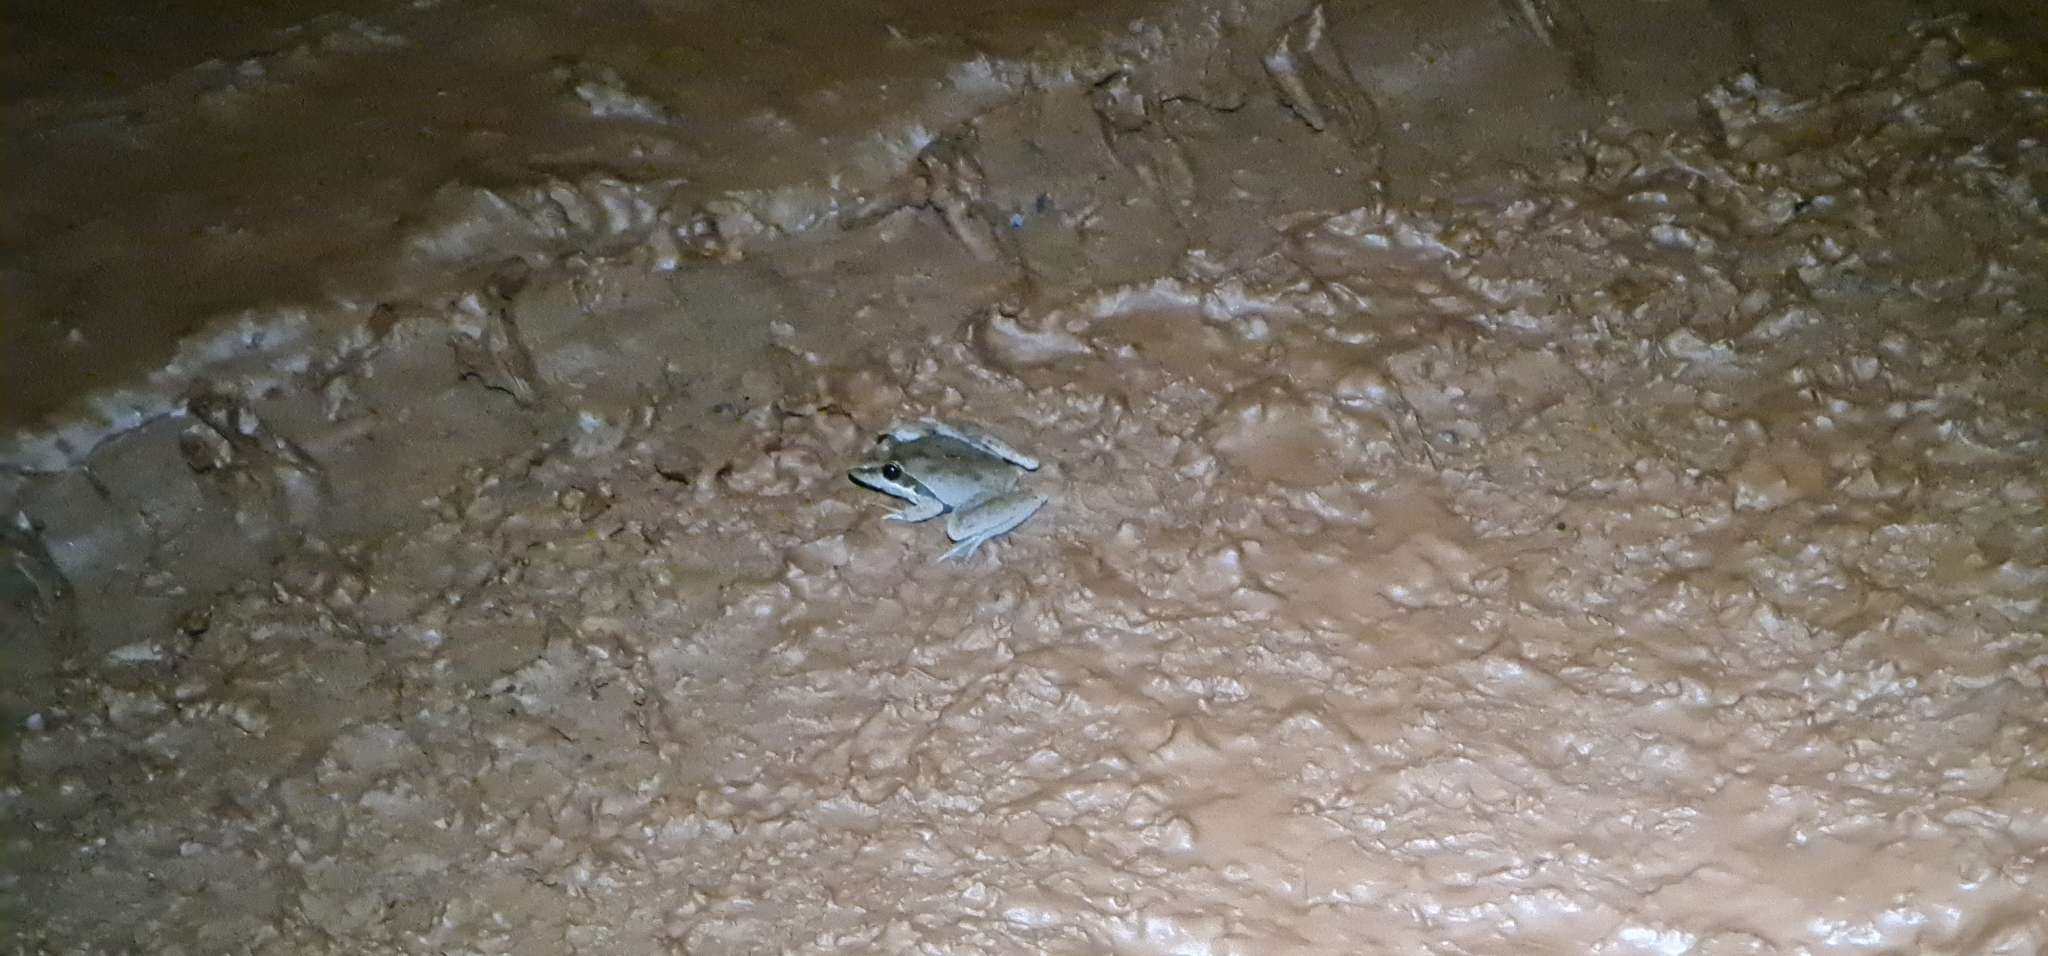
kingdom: Animalia
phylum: Chordata
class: Amphibia
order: Anura
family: Pelodryadidae
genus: Litoria
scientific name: Litoria watjulumensis
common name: Wotjulum frog
